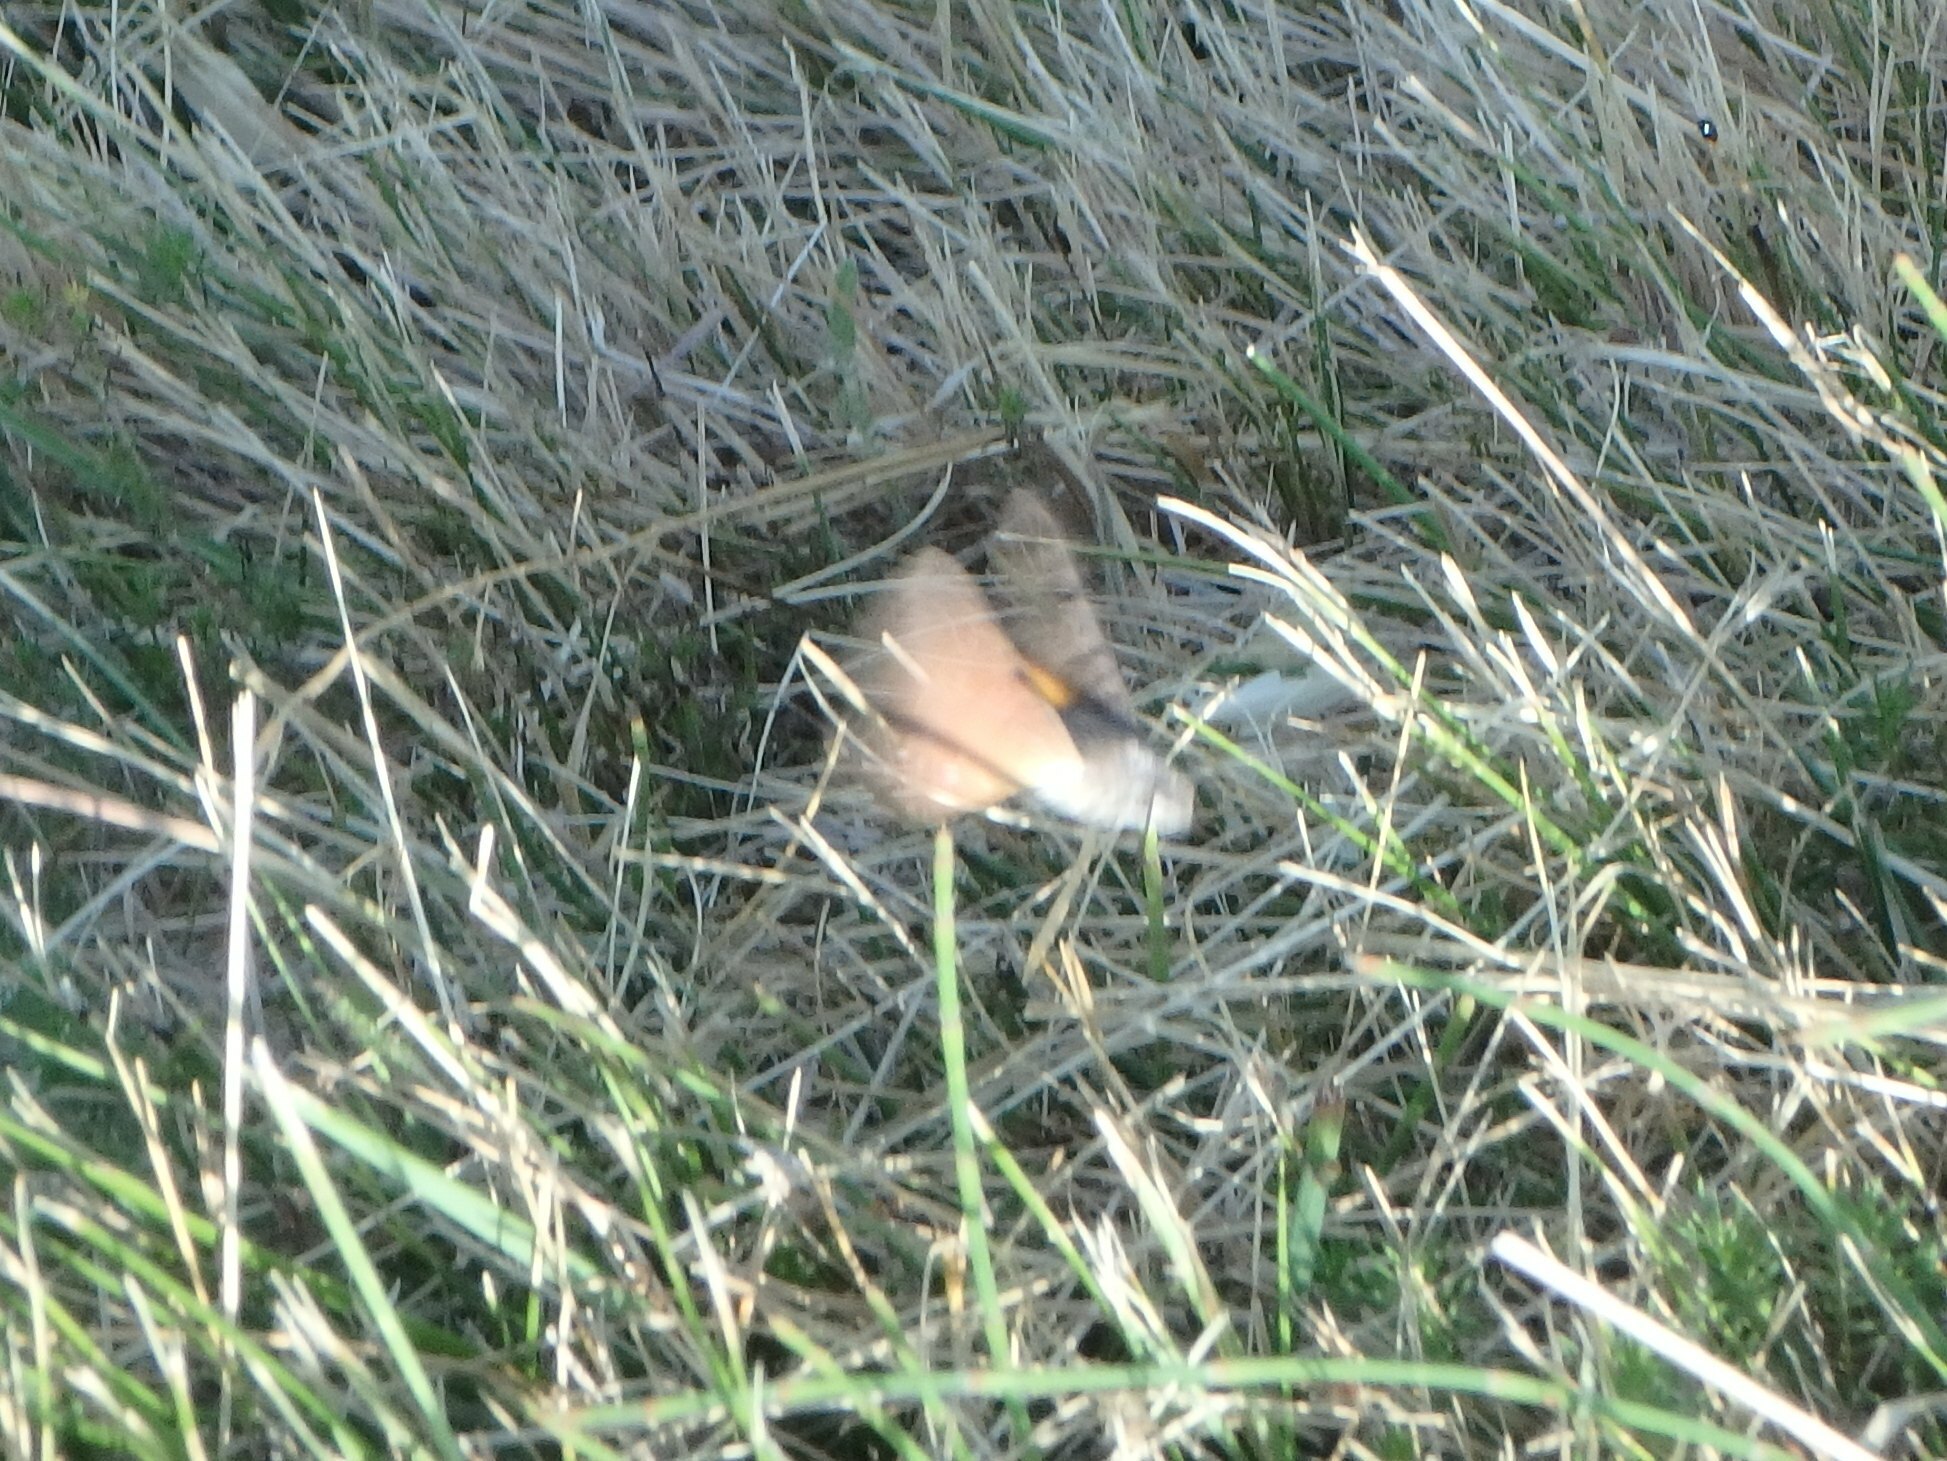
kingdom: Animalia
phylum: Arthropoda
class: Insecta
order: Lepidoptera
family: Sphingidae
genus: Macroglossum
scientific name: Macroglossum stellatarum
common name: Humming-bird hawk-moth
